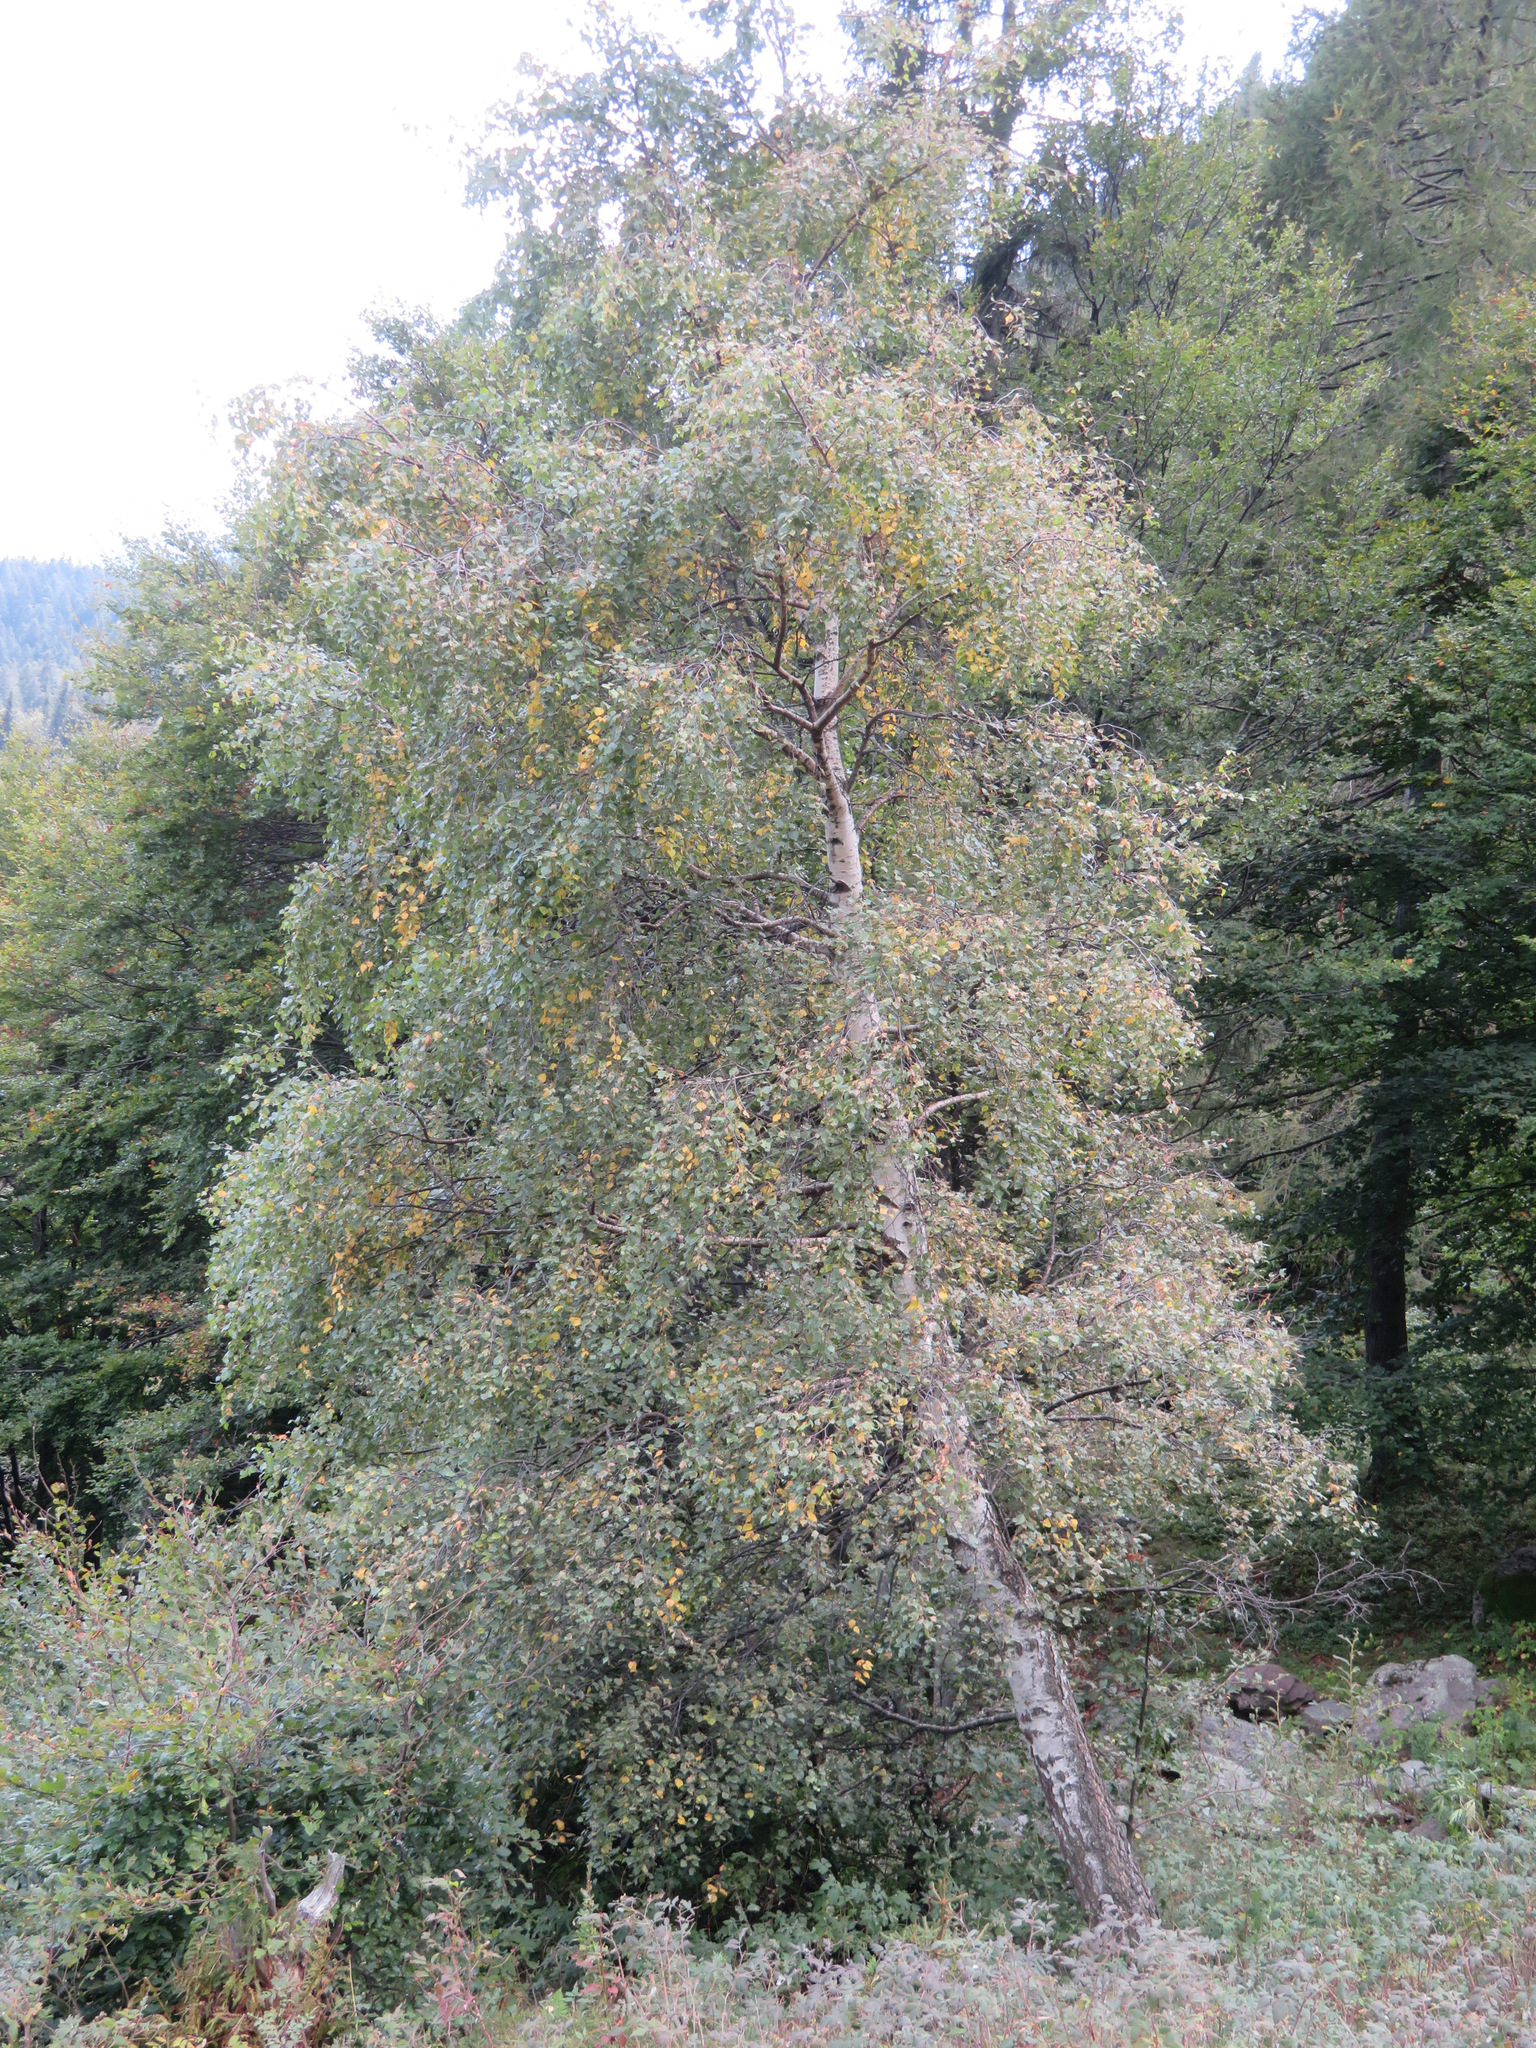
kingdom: Plantae
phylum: Tracheophyta
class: Magnoliopsida
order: Fagales
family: Betulaceae
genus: Betula
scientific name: Betula pendula
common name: Silver birch
